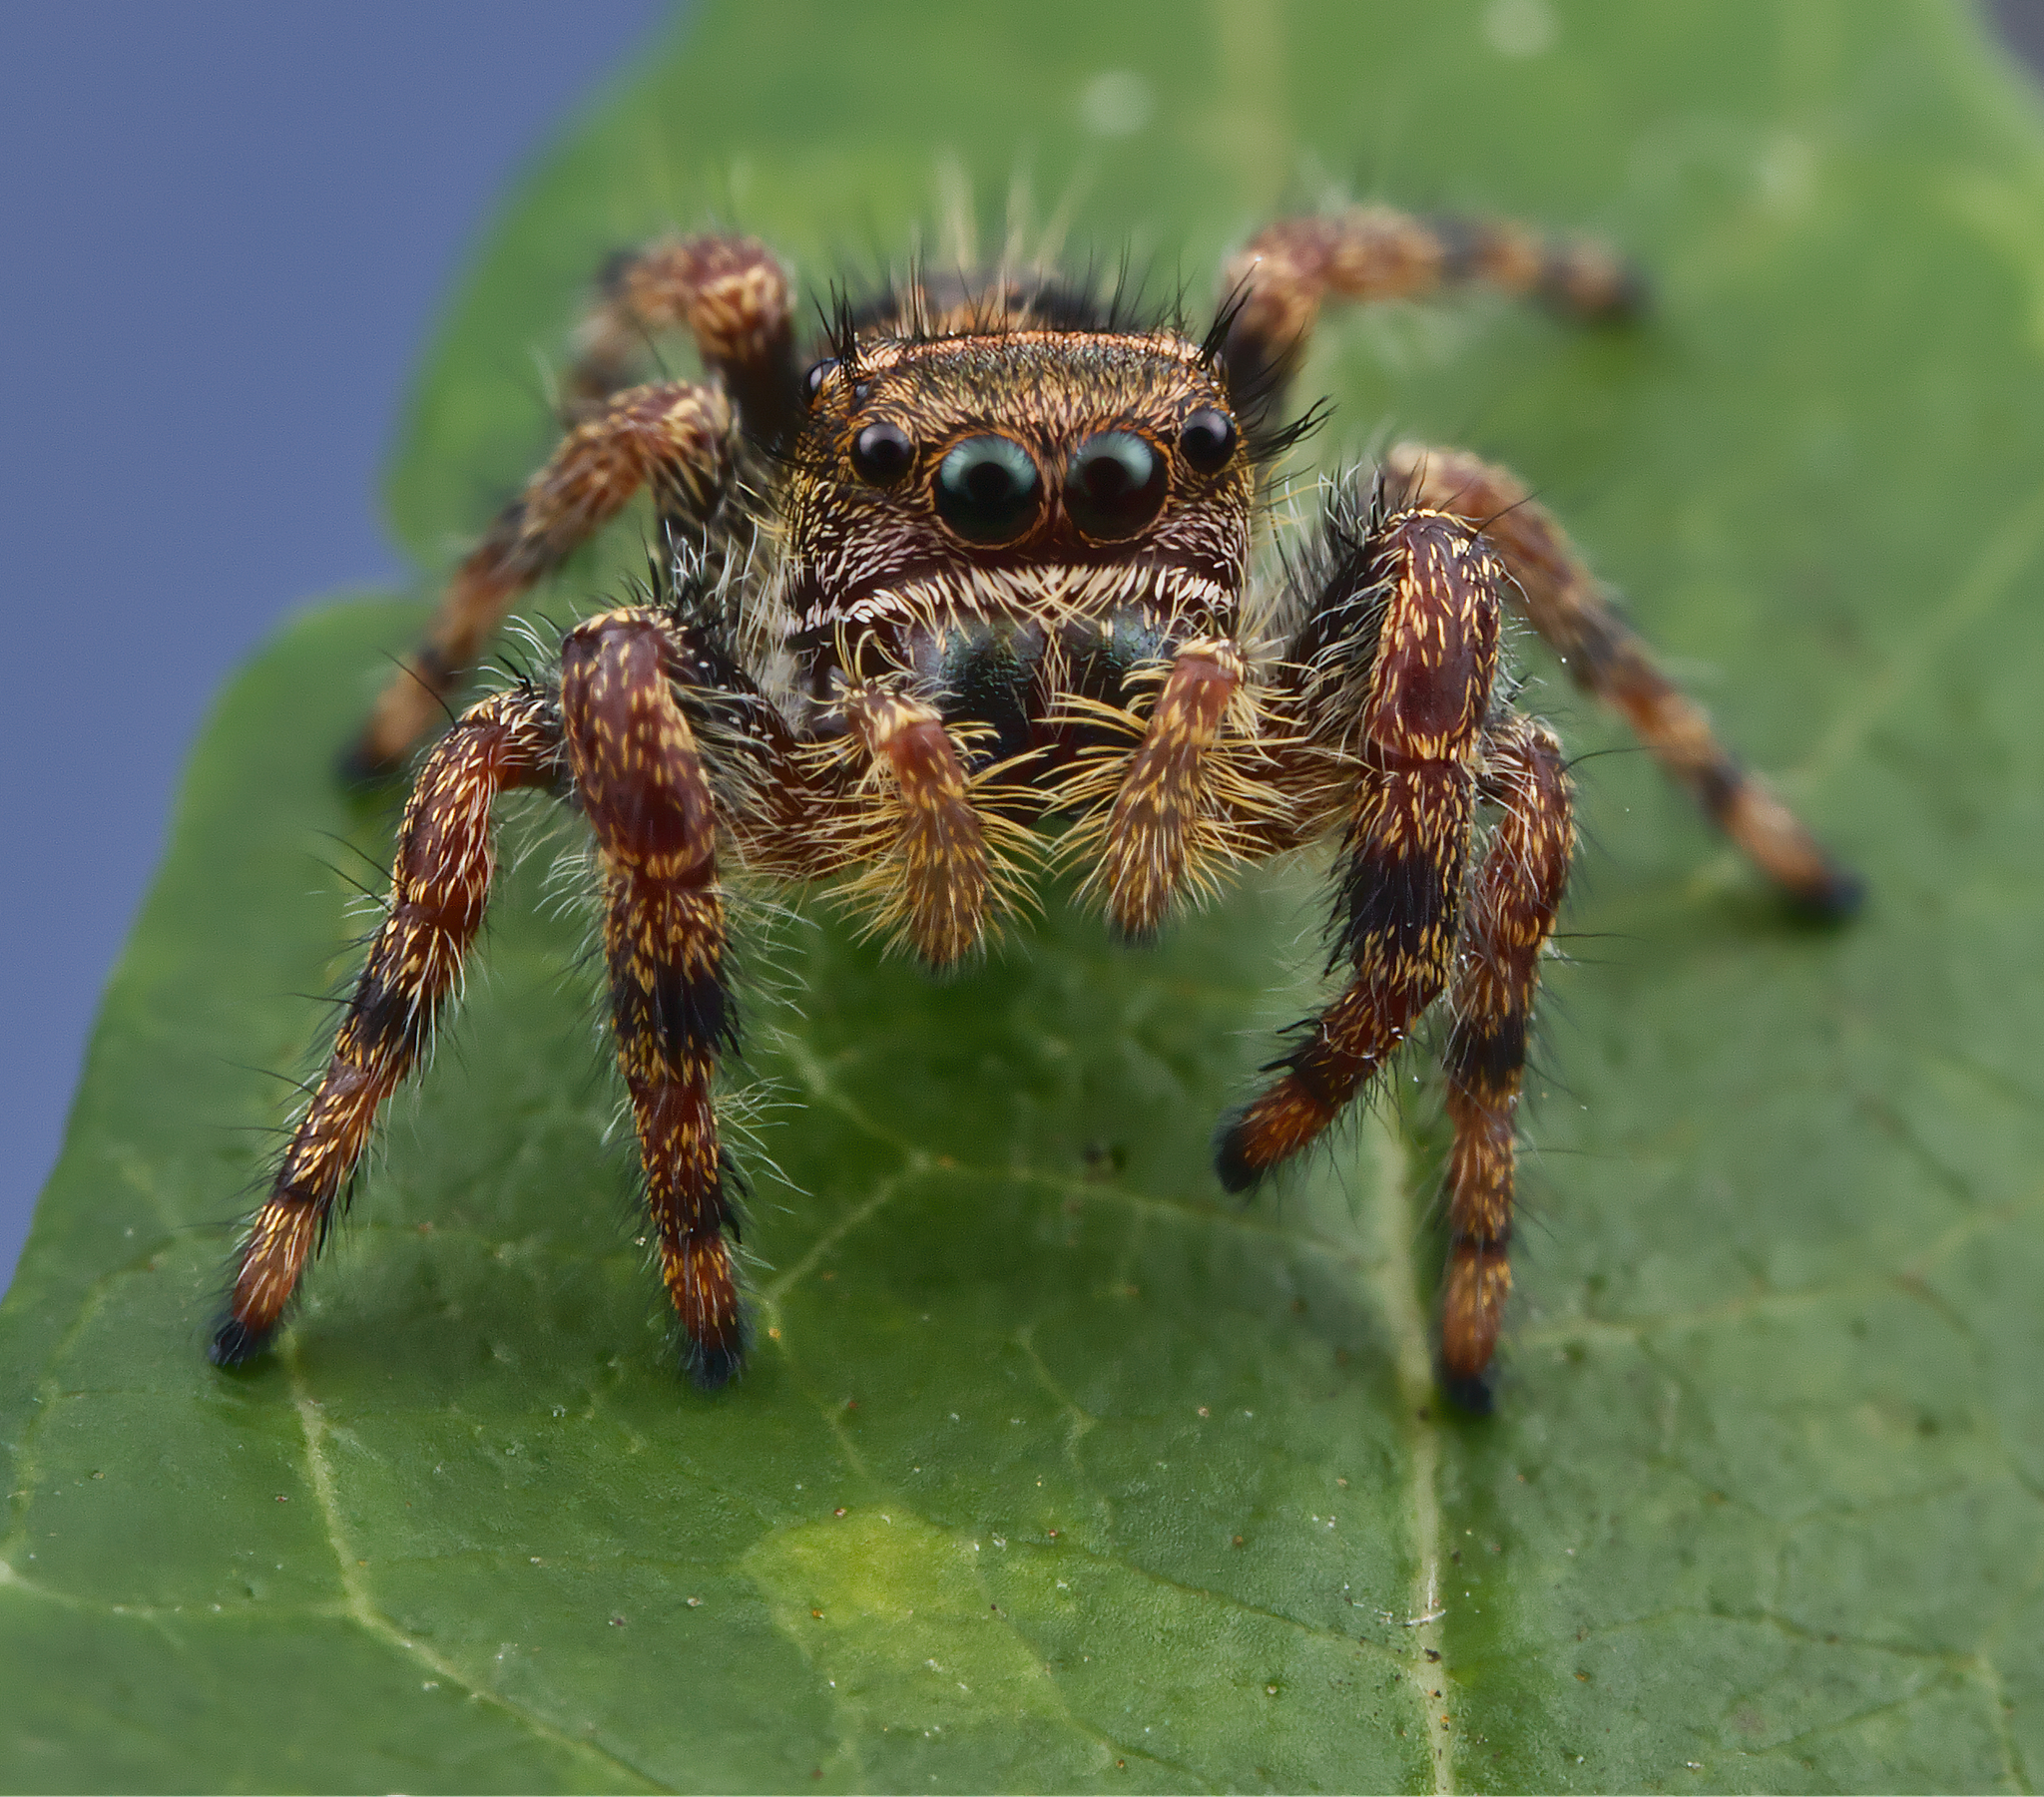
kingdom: Animalia
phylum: Arthropoda
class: Arachnida
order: Araneae
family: Salticidae
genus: Phidippus
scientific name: Phidippus audax
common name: Bold jumper
